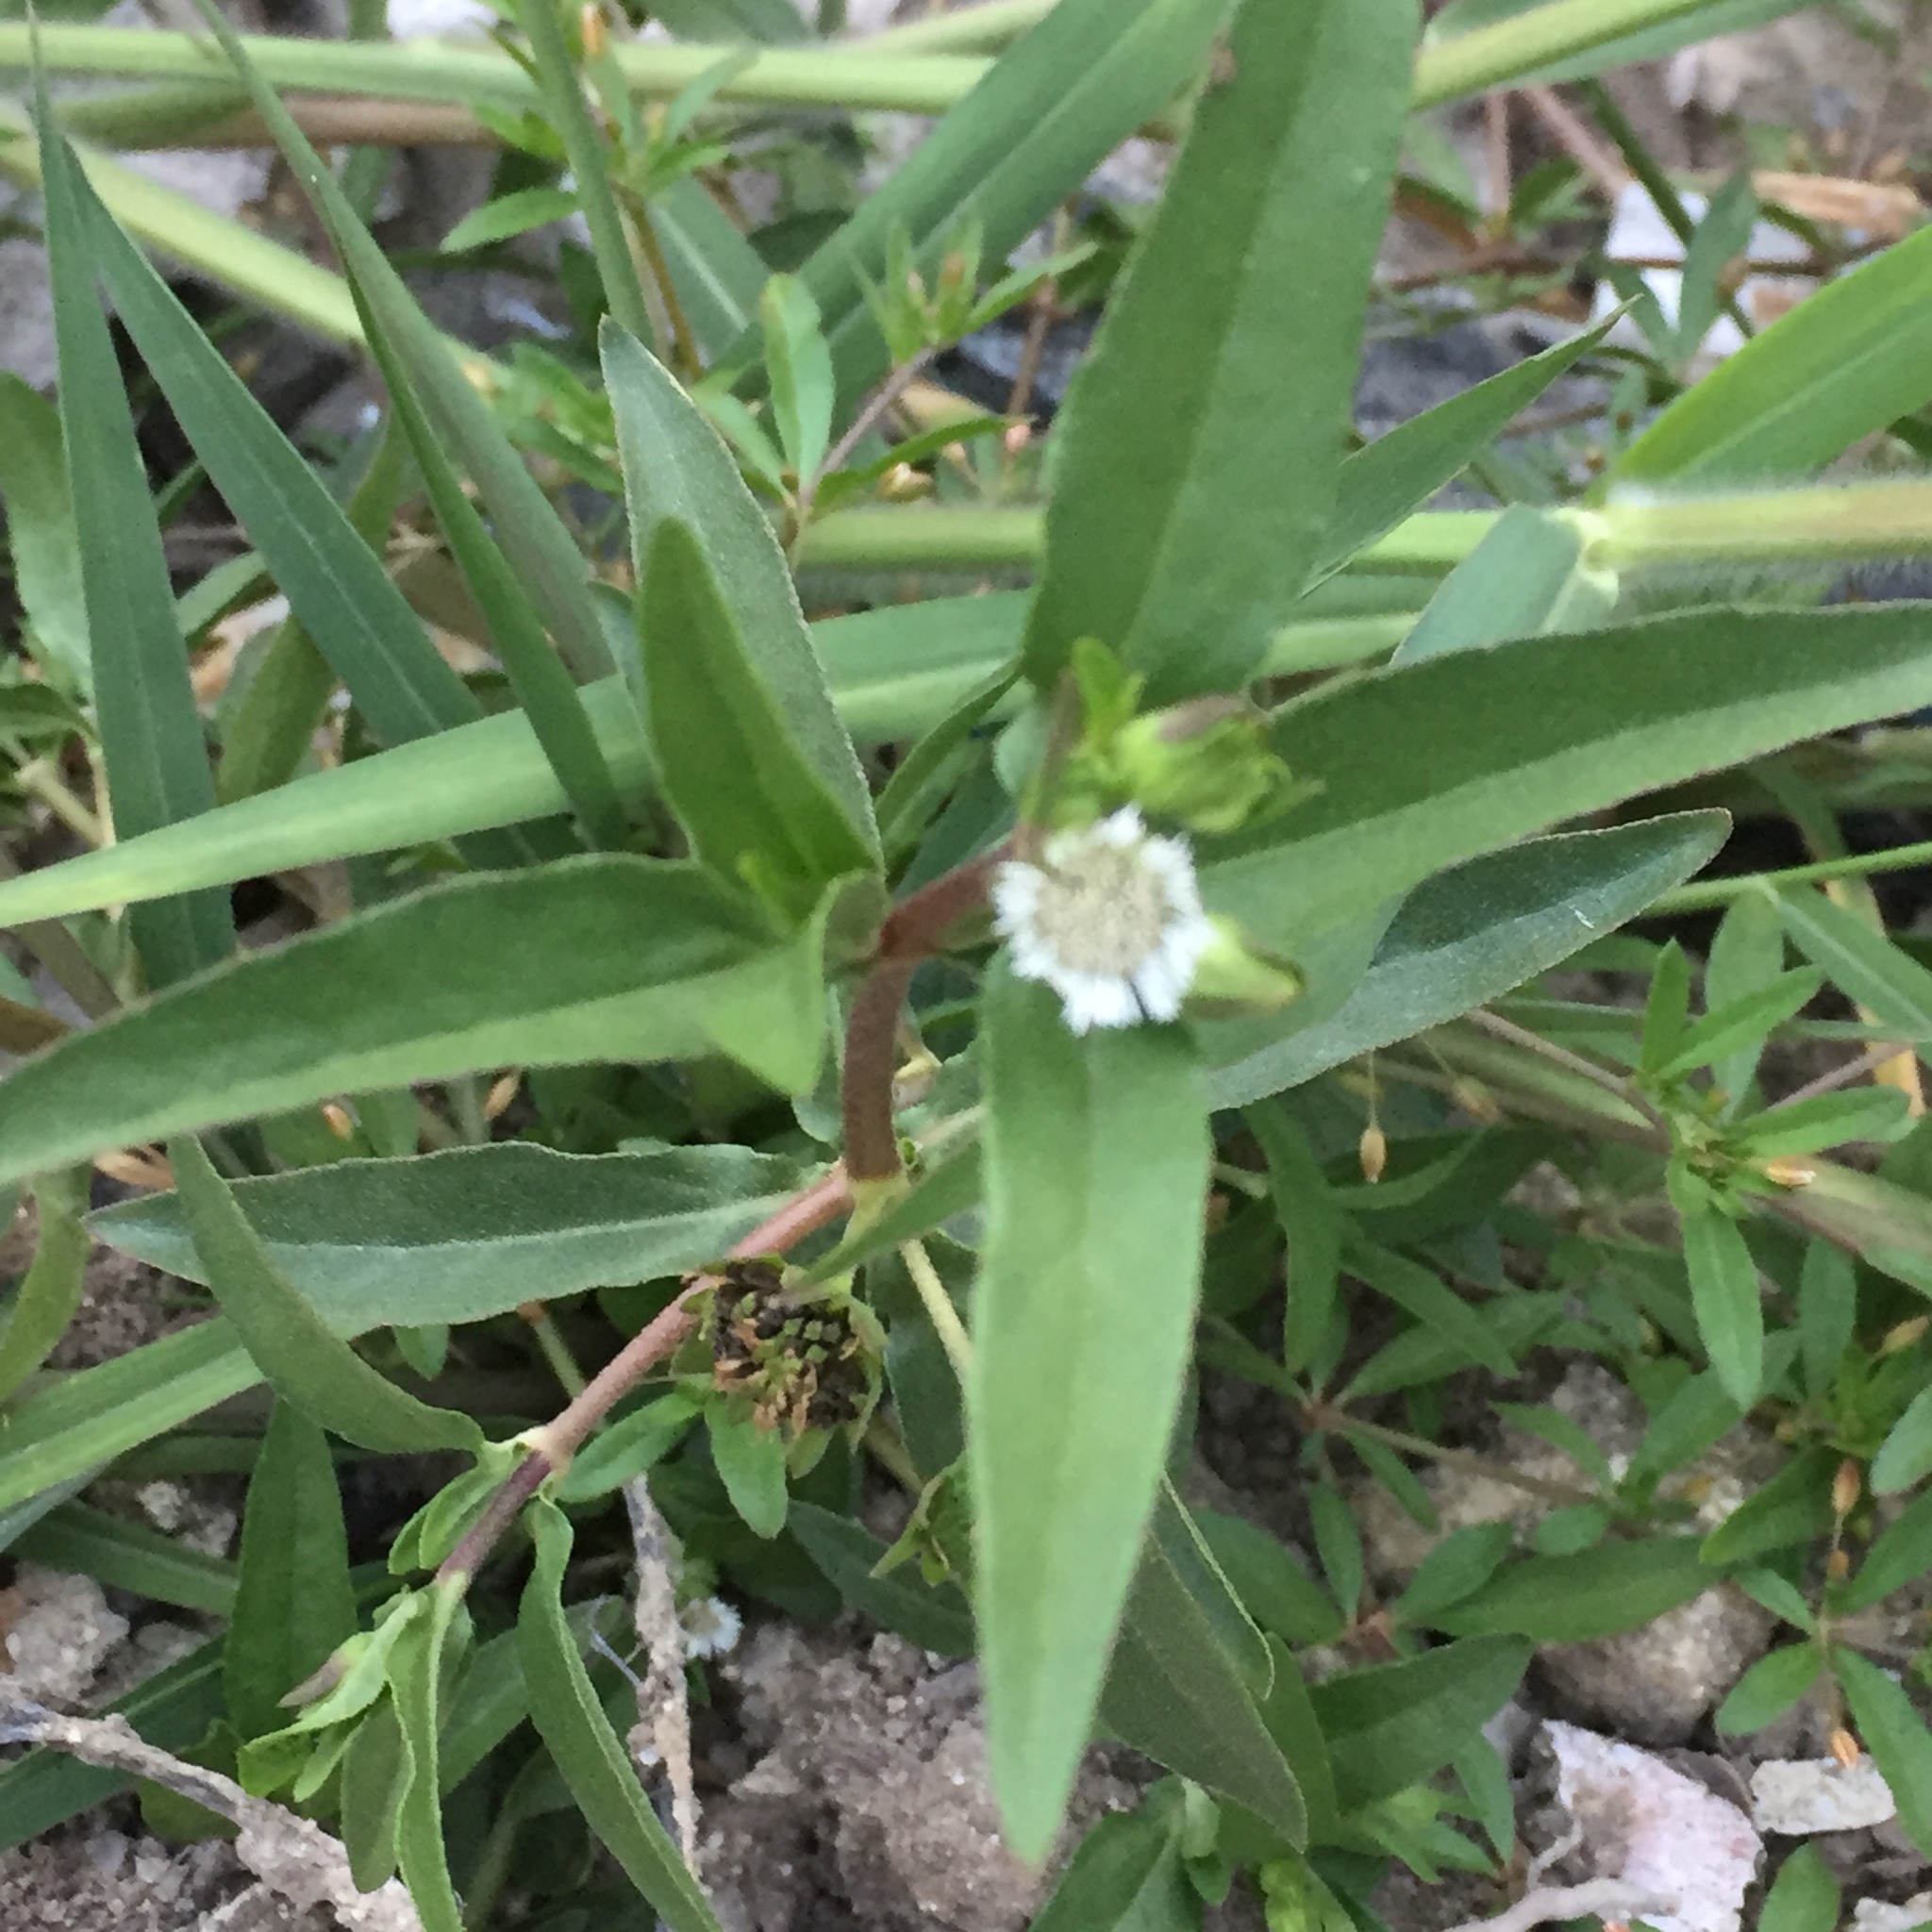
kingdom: Plantae
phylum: Tracheophyta
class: Magnoliopsida
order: Asterales
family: Asteraceae
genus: Eclipta
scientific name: Eclipta prostrata
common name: False daisy
